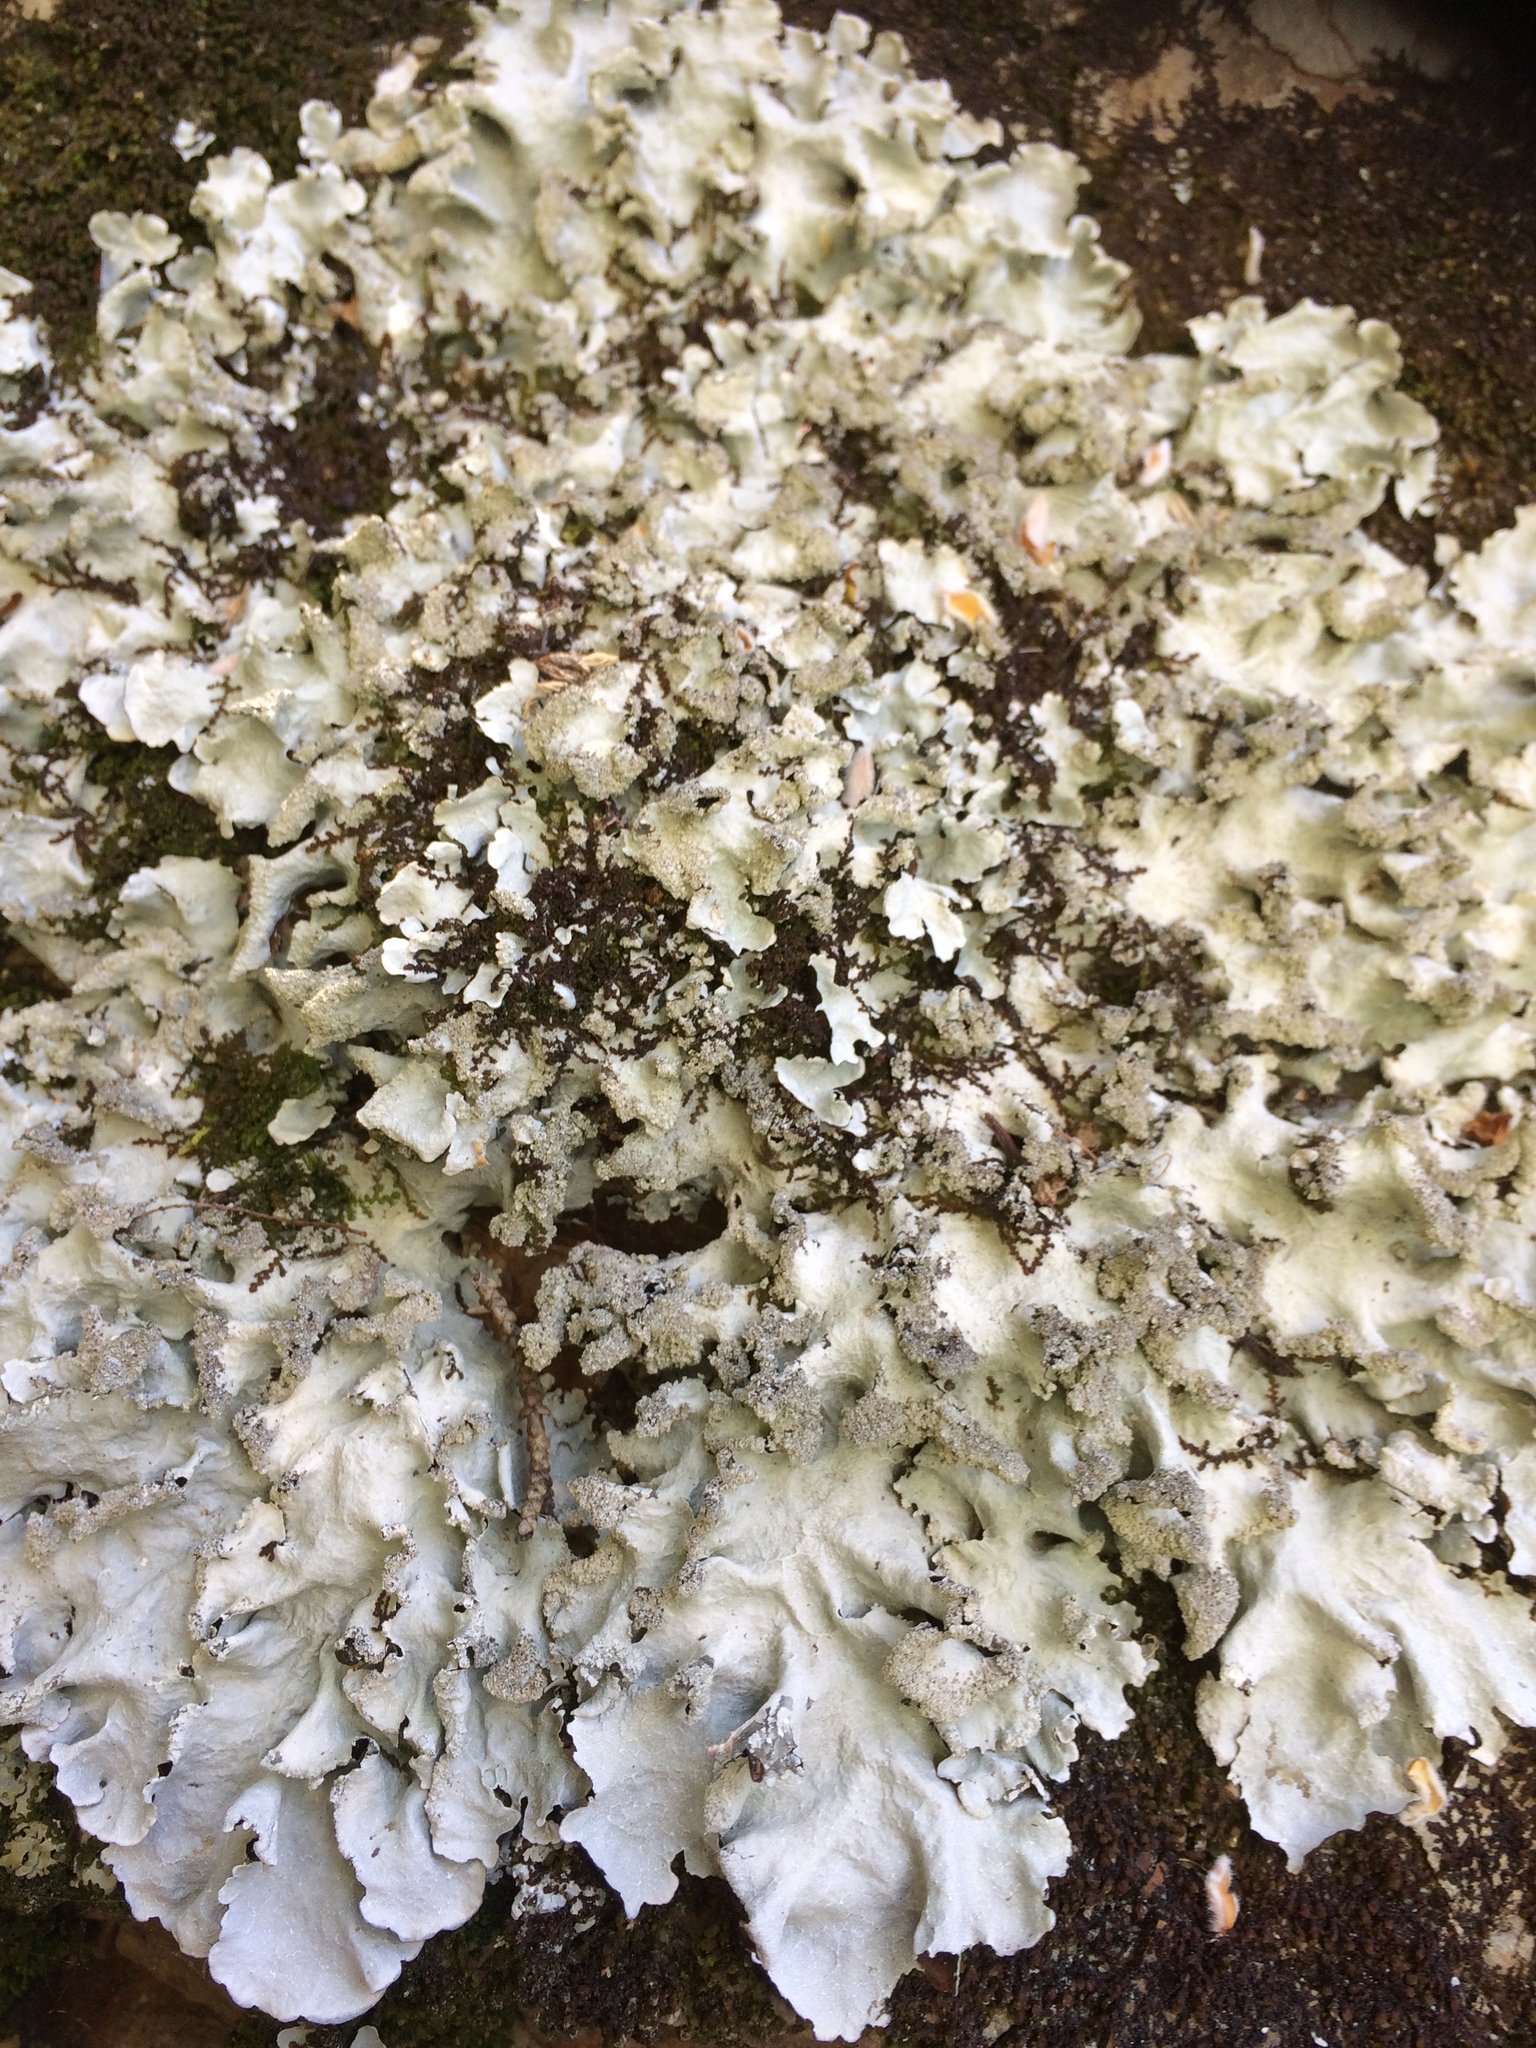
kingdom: Fungi
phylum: Ascomycota
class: Lecanoromycetes
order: Lecanorales
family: Parmeliaceae
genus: Parmotrema
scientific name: Parmotrema reticulatum
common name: Black sheet lichen
